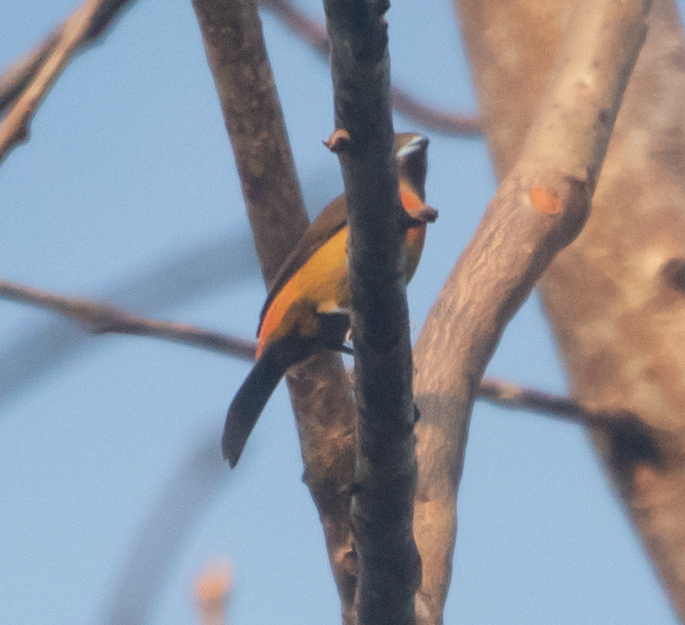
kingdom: Animalia
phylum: Chordata
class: Aves
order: Passeriformes
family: Thraupidae
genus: Ramphocelus
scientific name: Ramphocelus passerinii
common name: Passerini's tanager
